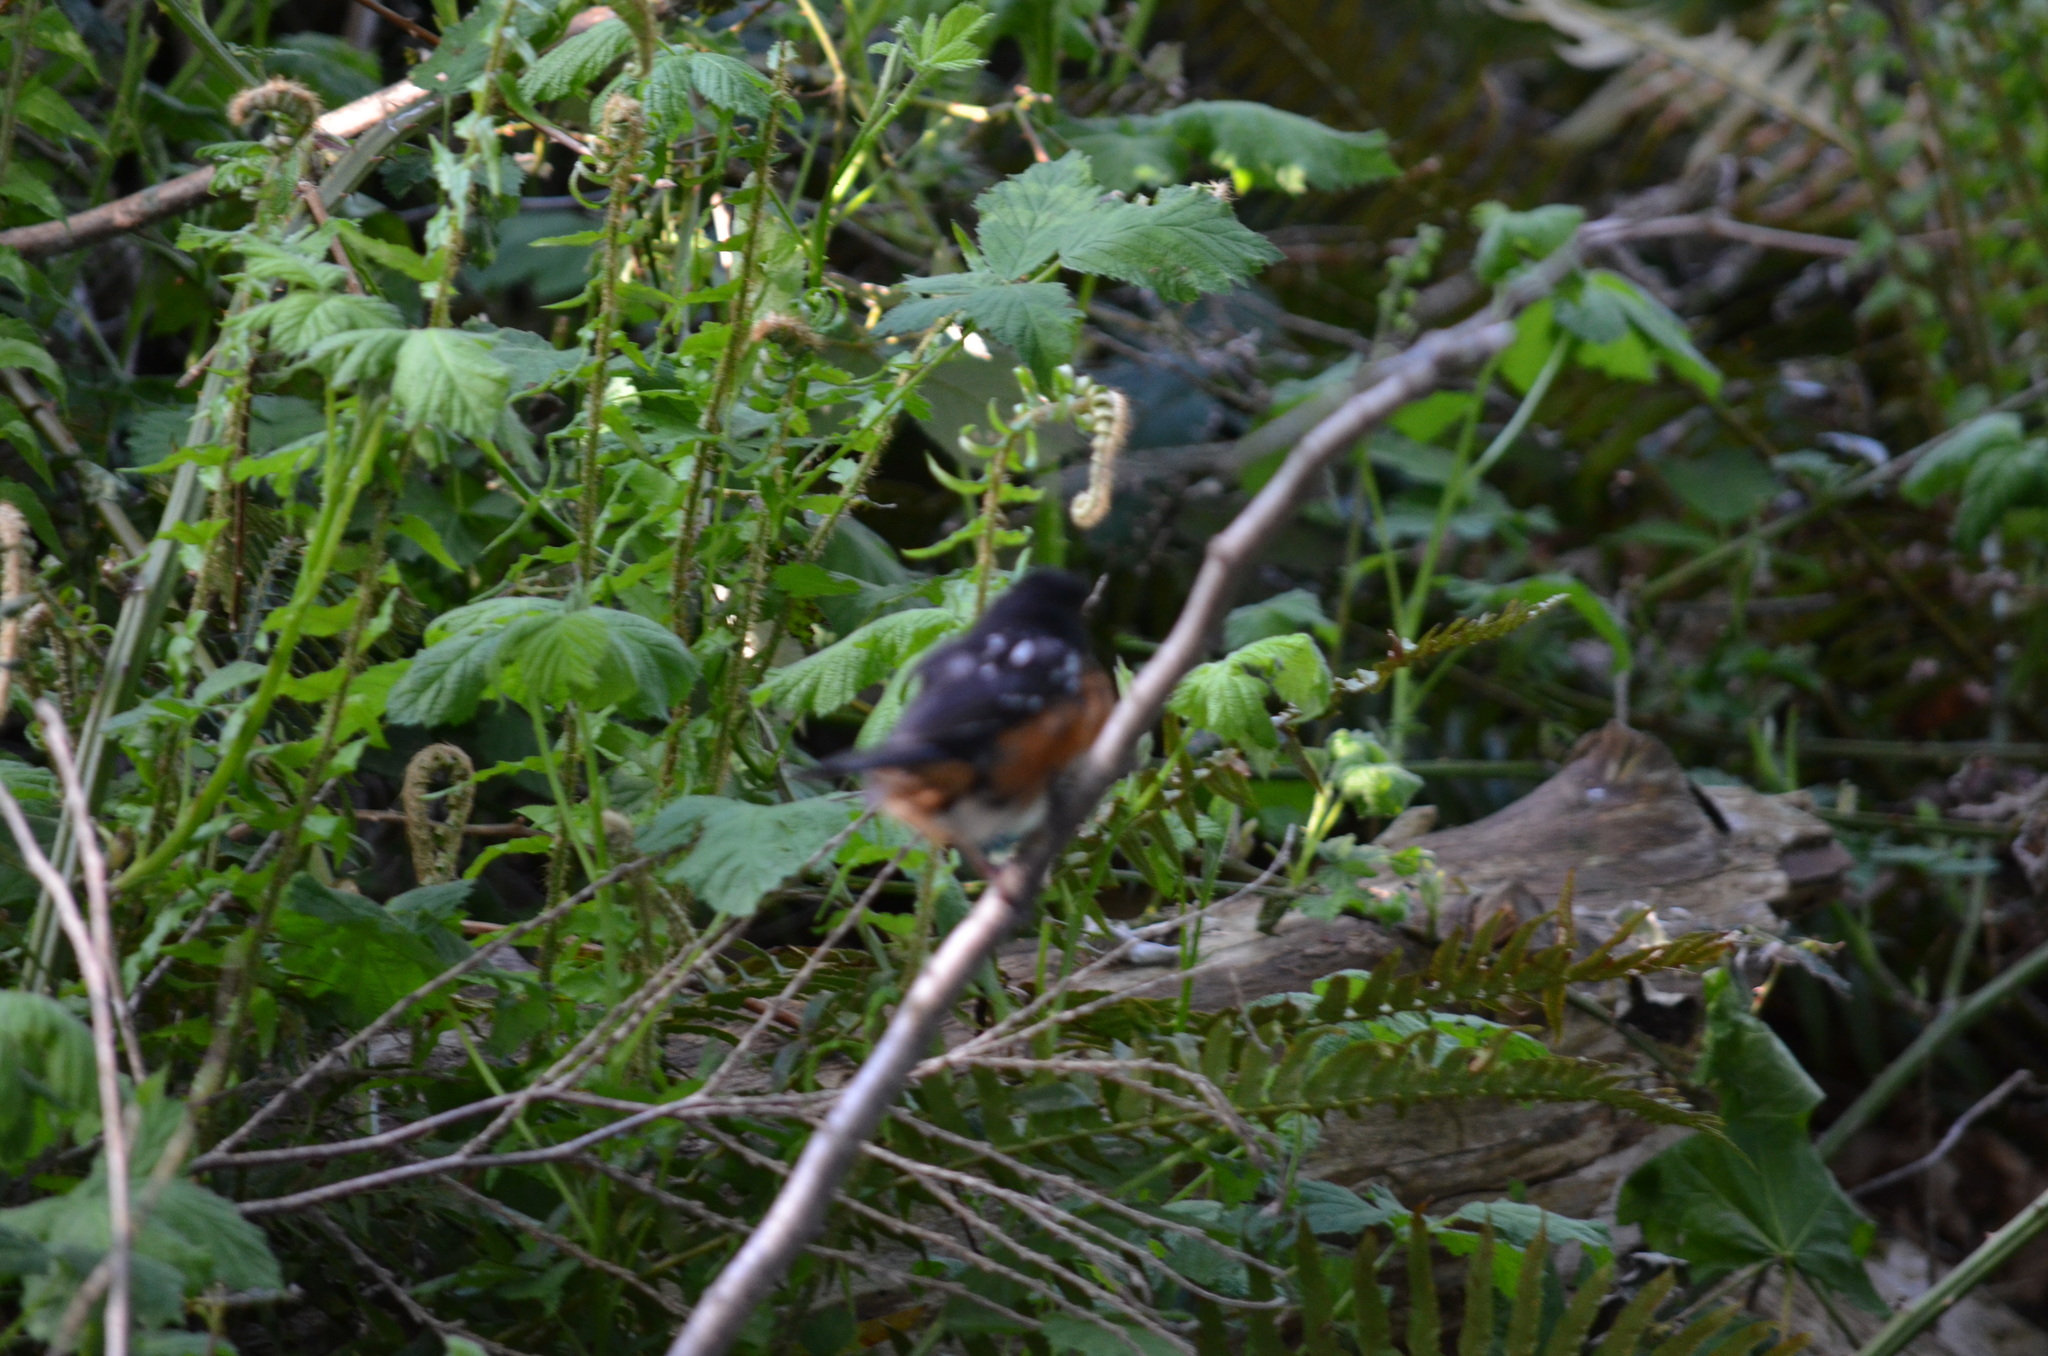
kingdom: Animalia
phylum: Chordata
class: Aves
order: Passeriformes
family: Passerellidae
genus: Pipilo
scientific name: Pipilo maculatus
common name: Spotted towhee
